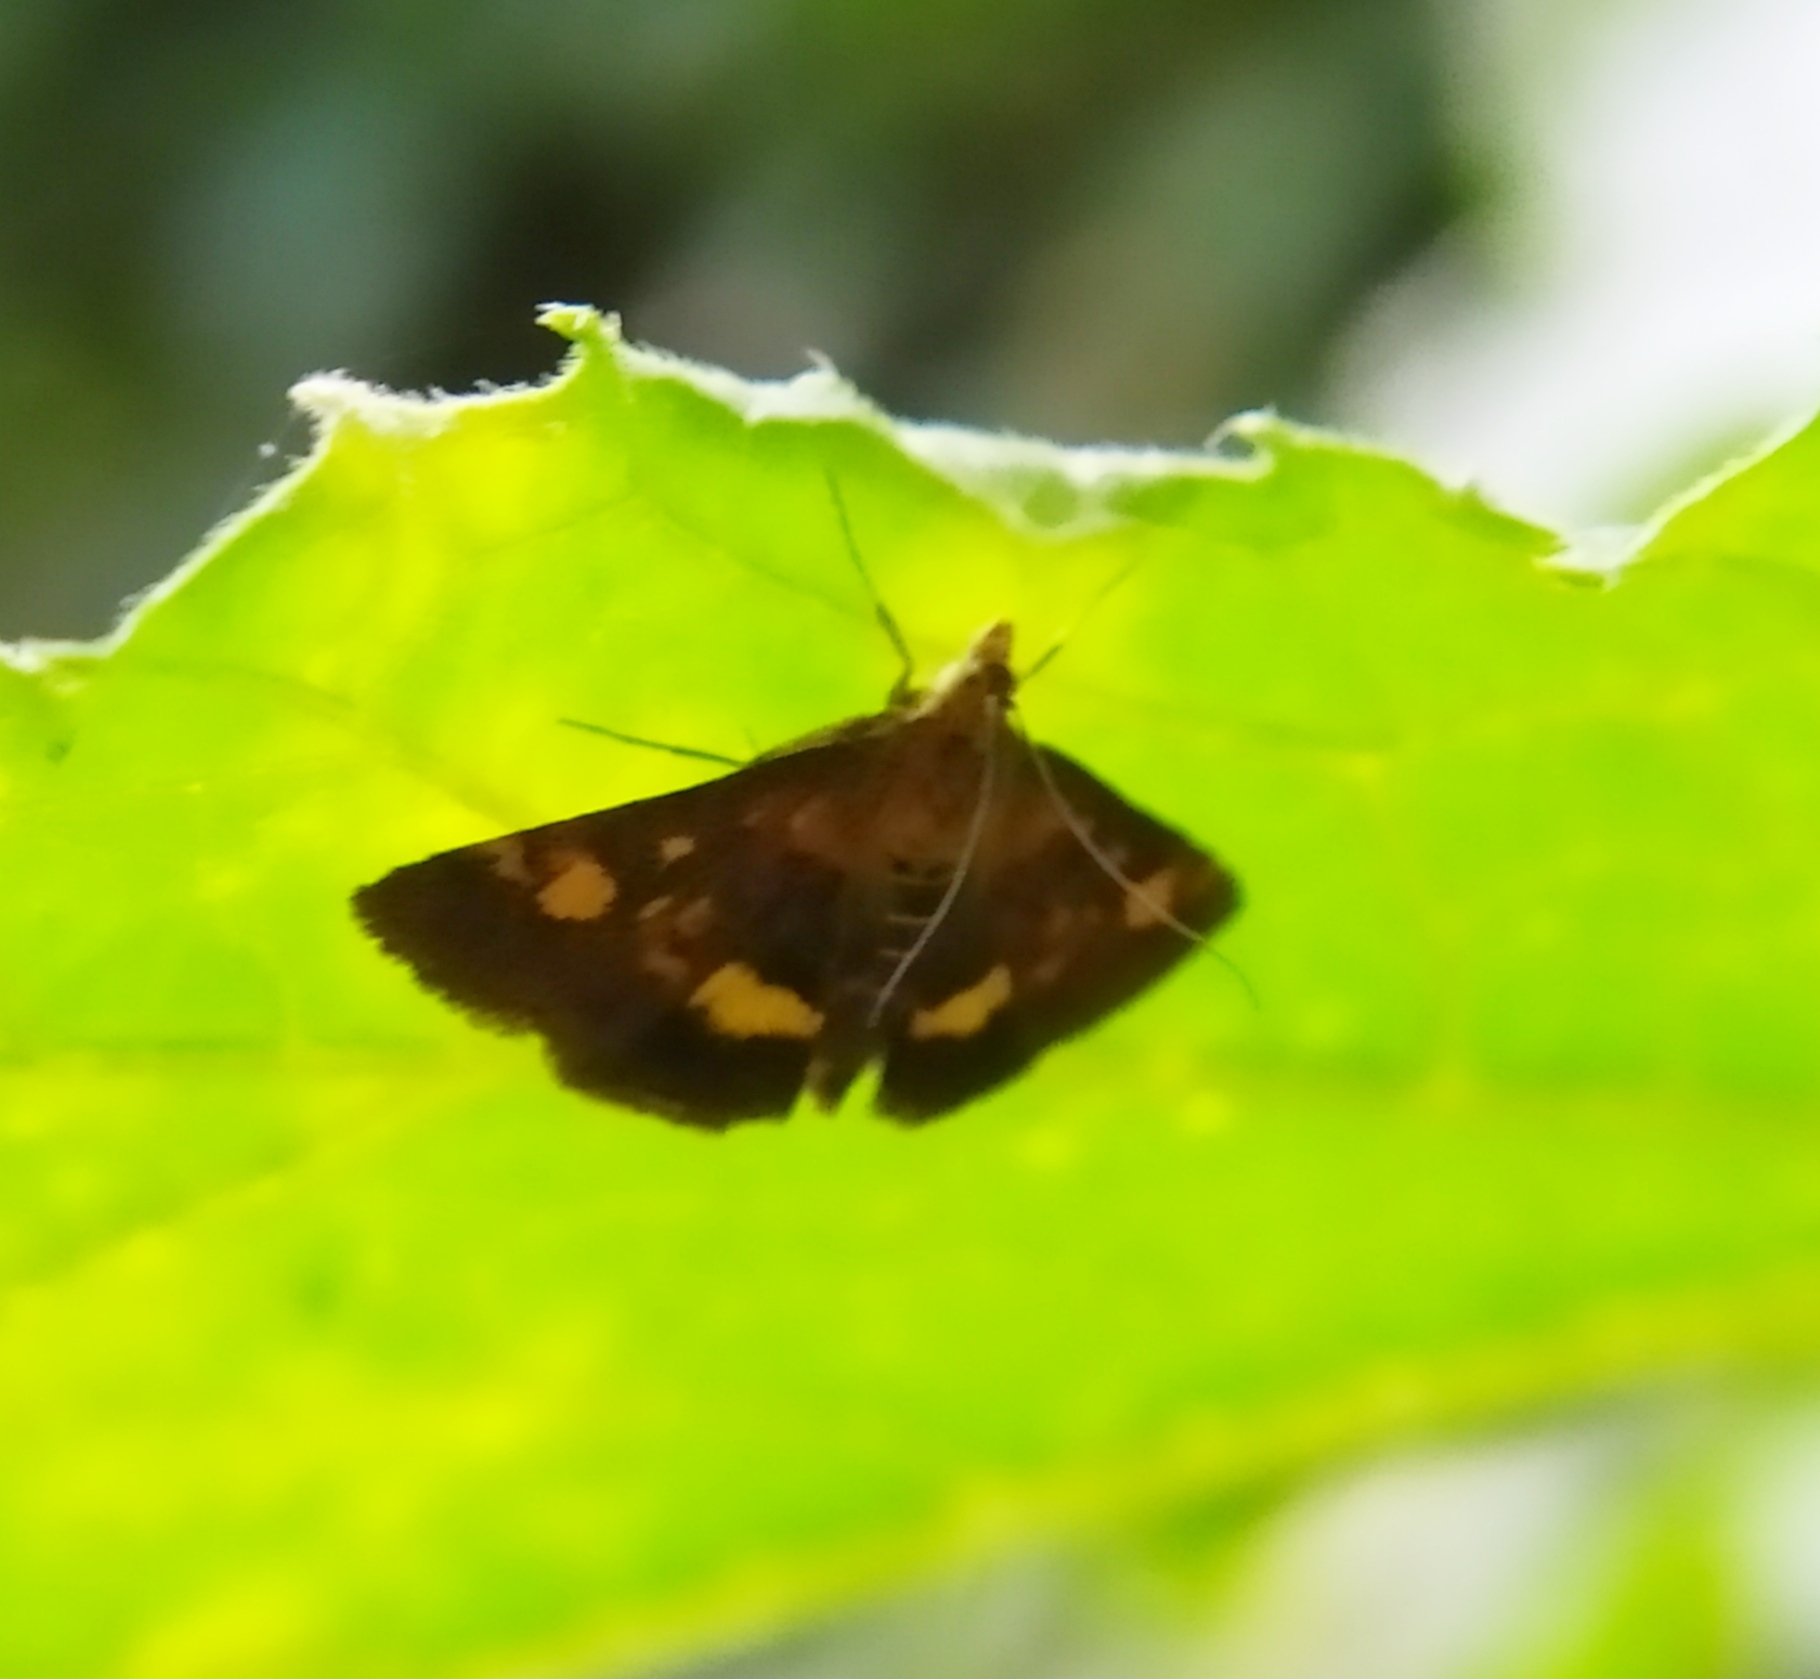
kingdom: Animalia
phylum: Arthropoda
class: Insecta
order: Lepidoptera
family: Crambidae
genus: Pyrausta
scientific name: Pyrausta aurata
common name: Small purple & gold
